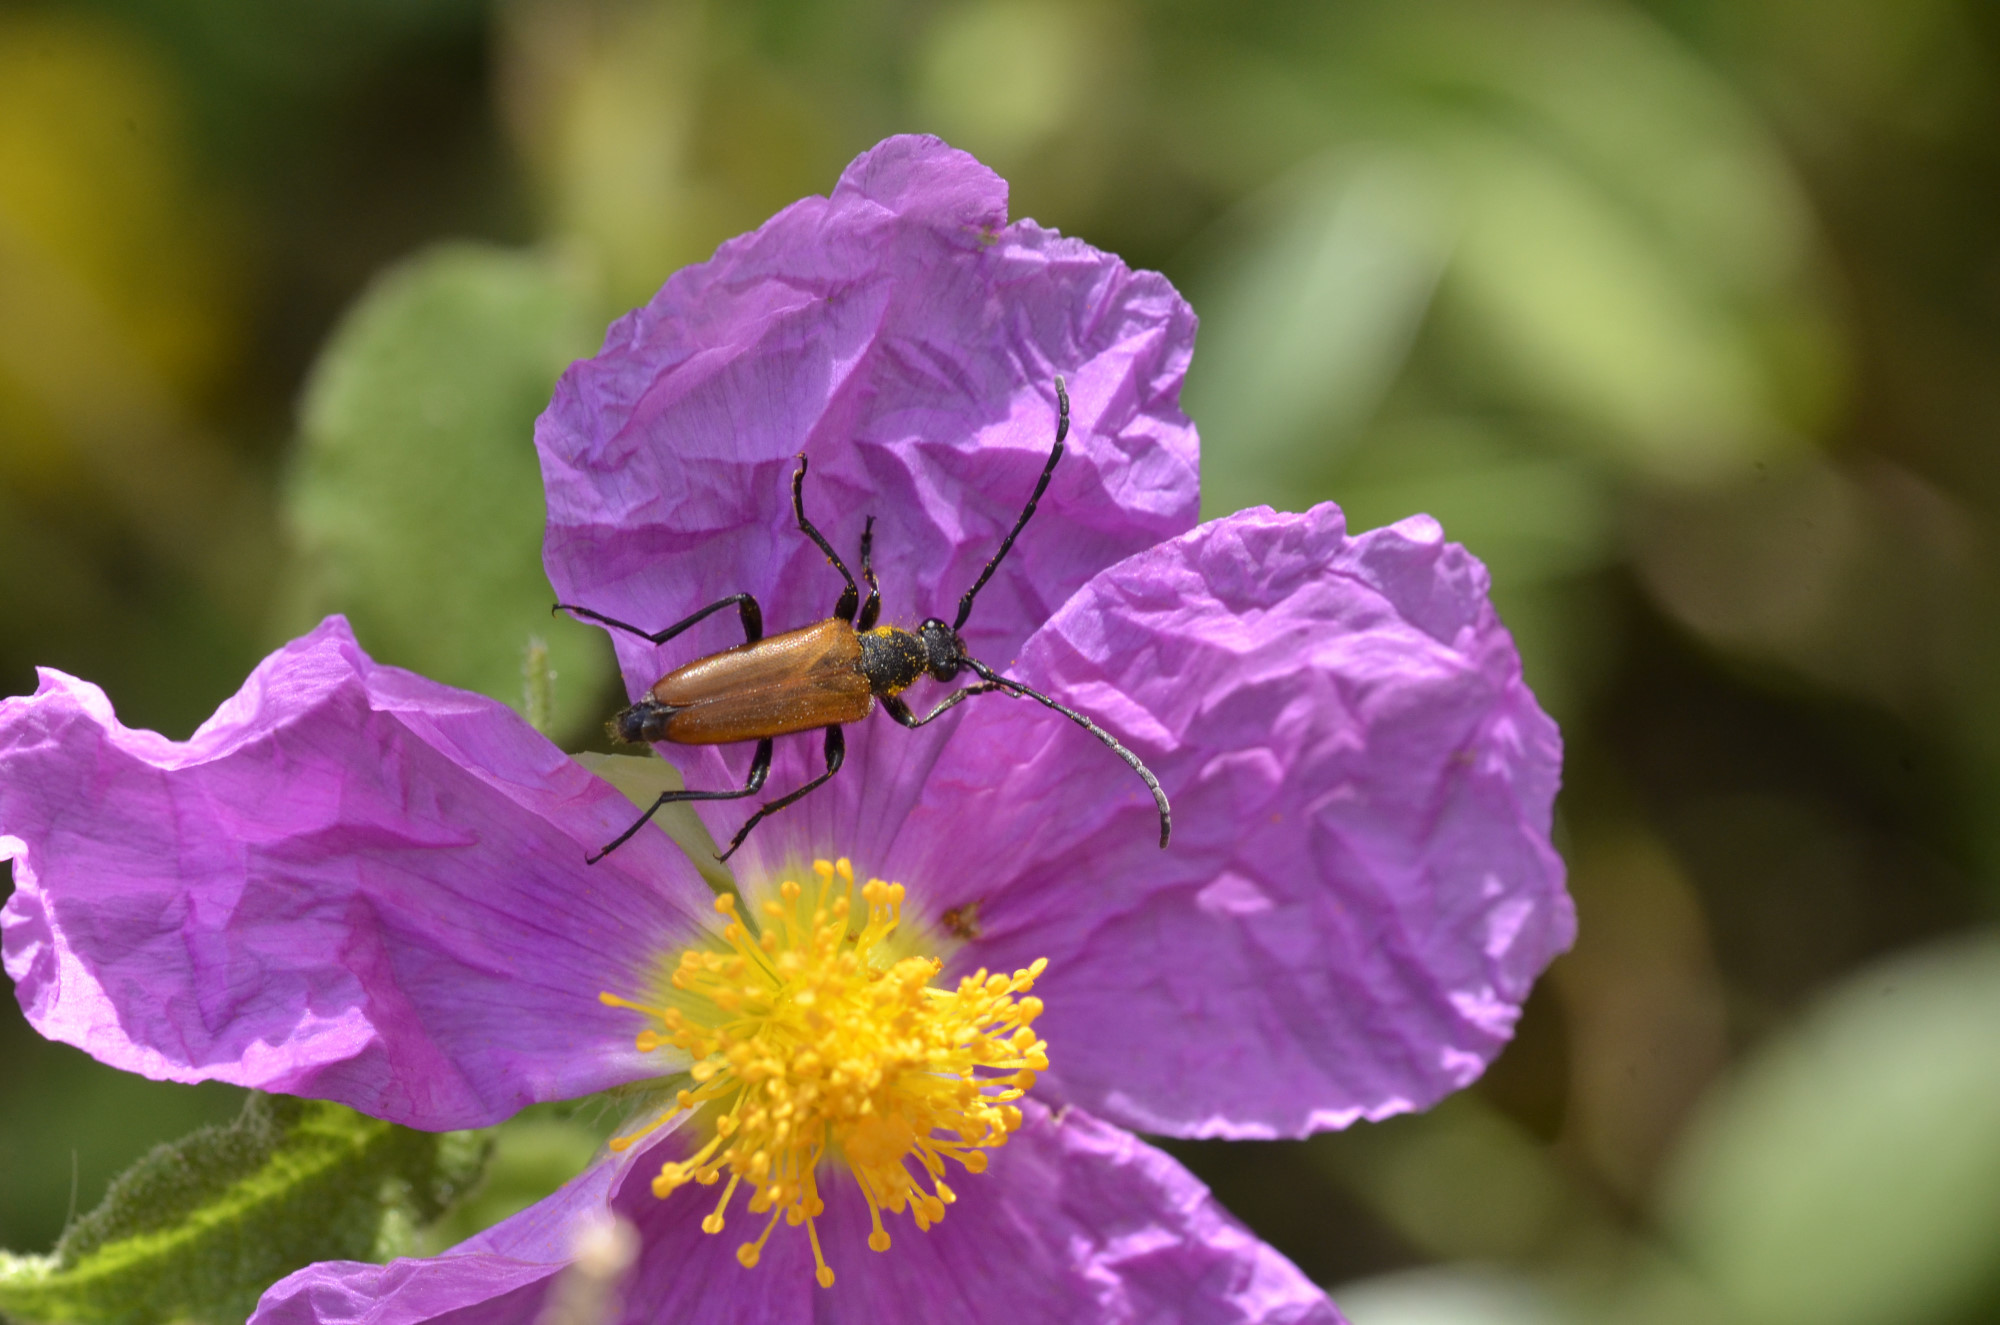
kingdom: Animalia
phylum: Arthropoda
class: Insecta
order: Coleoptera
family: Cerambycidae
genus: Stictoleptura
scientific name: Stictoleptura picticornis
